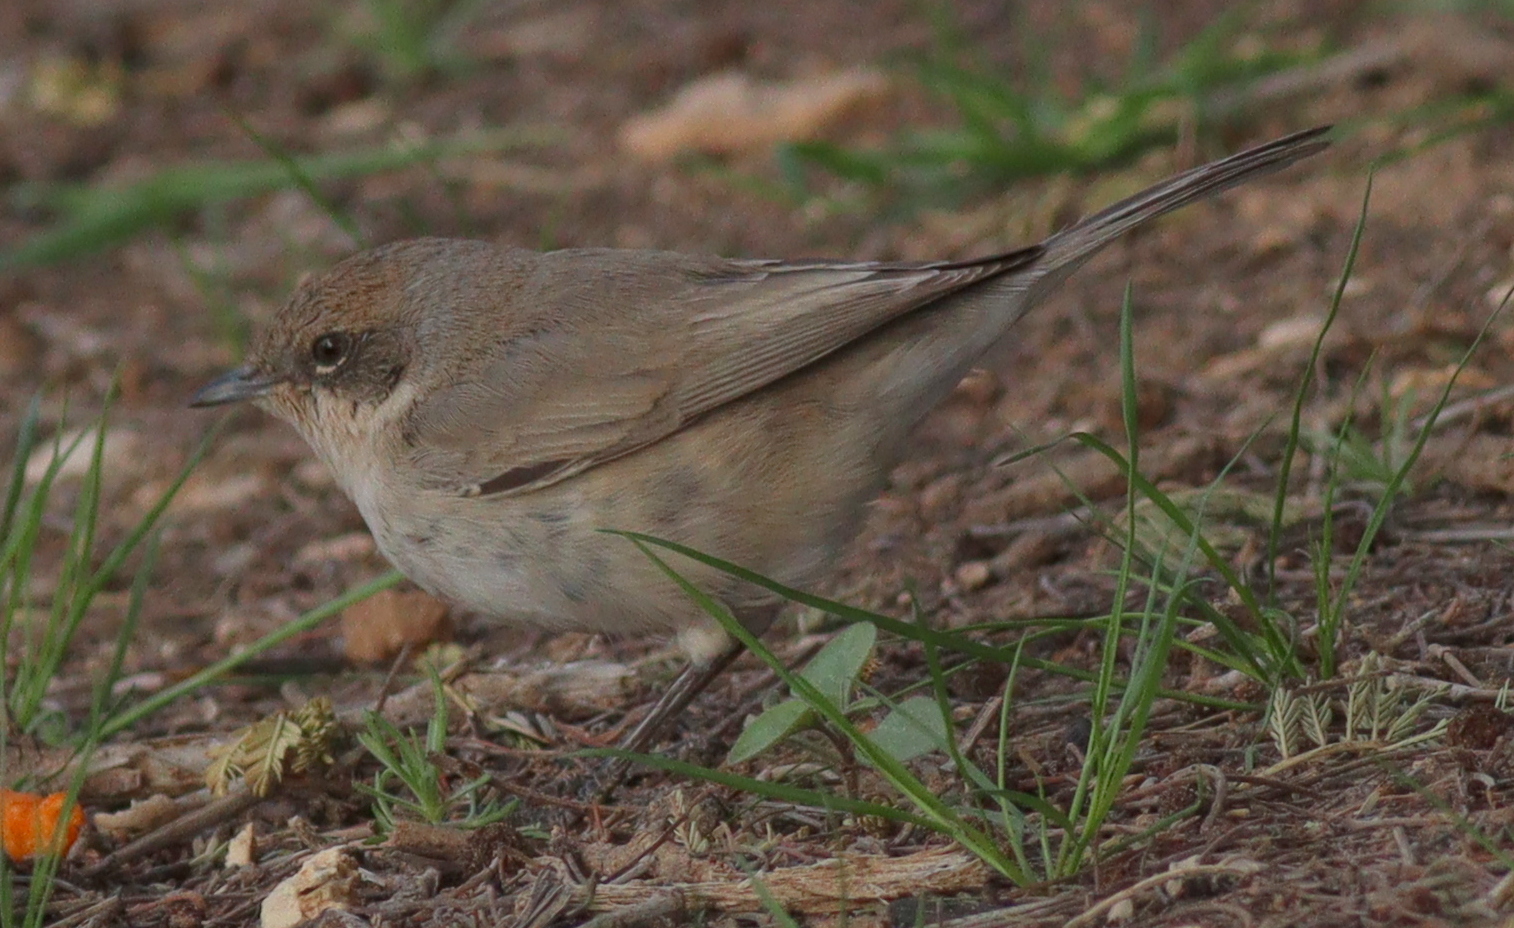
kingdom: Animalia
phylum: Chordata
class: Aves
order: Passeriformes
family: Sylviidae
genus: Sylvia
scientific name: Sylvia curruca
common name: Lesser whitethroat
